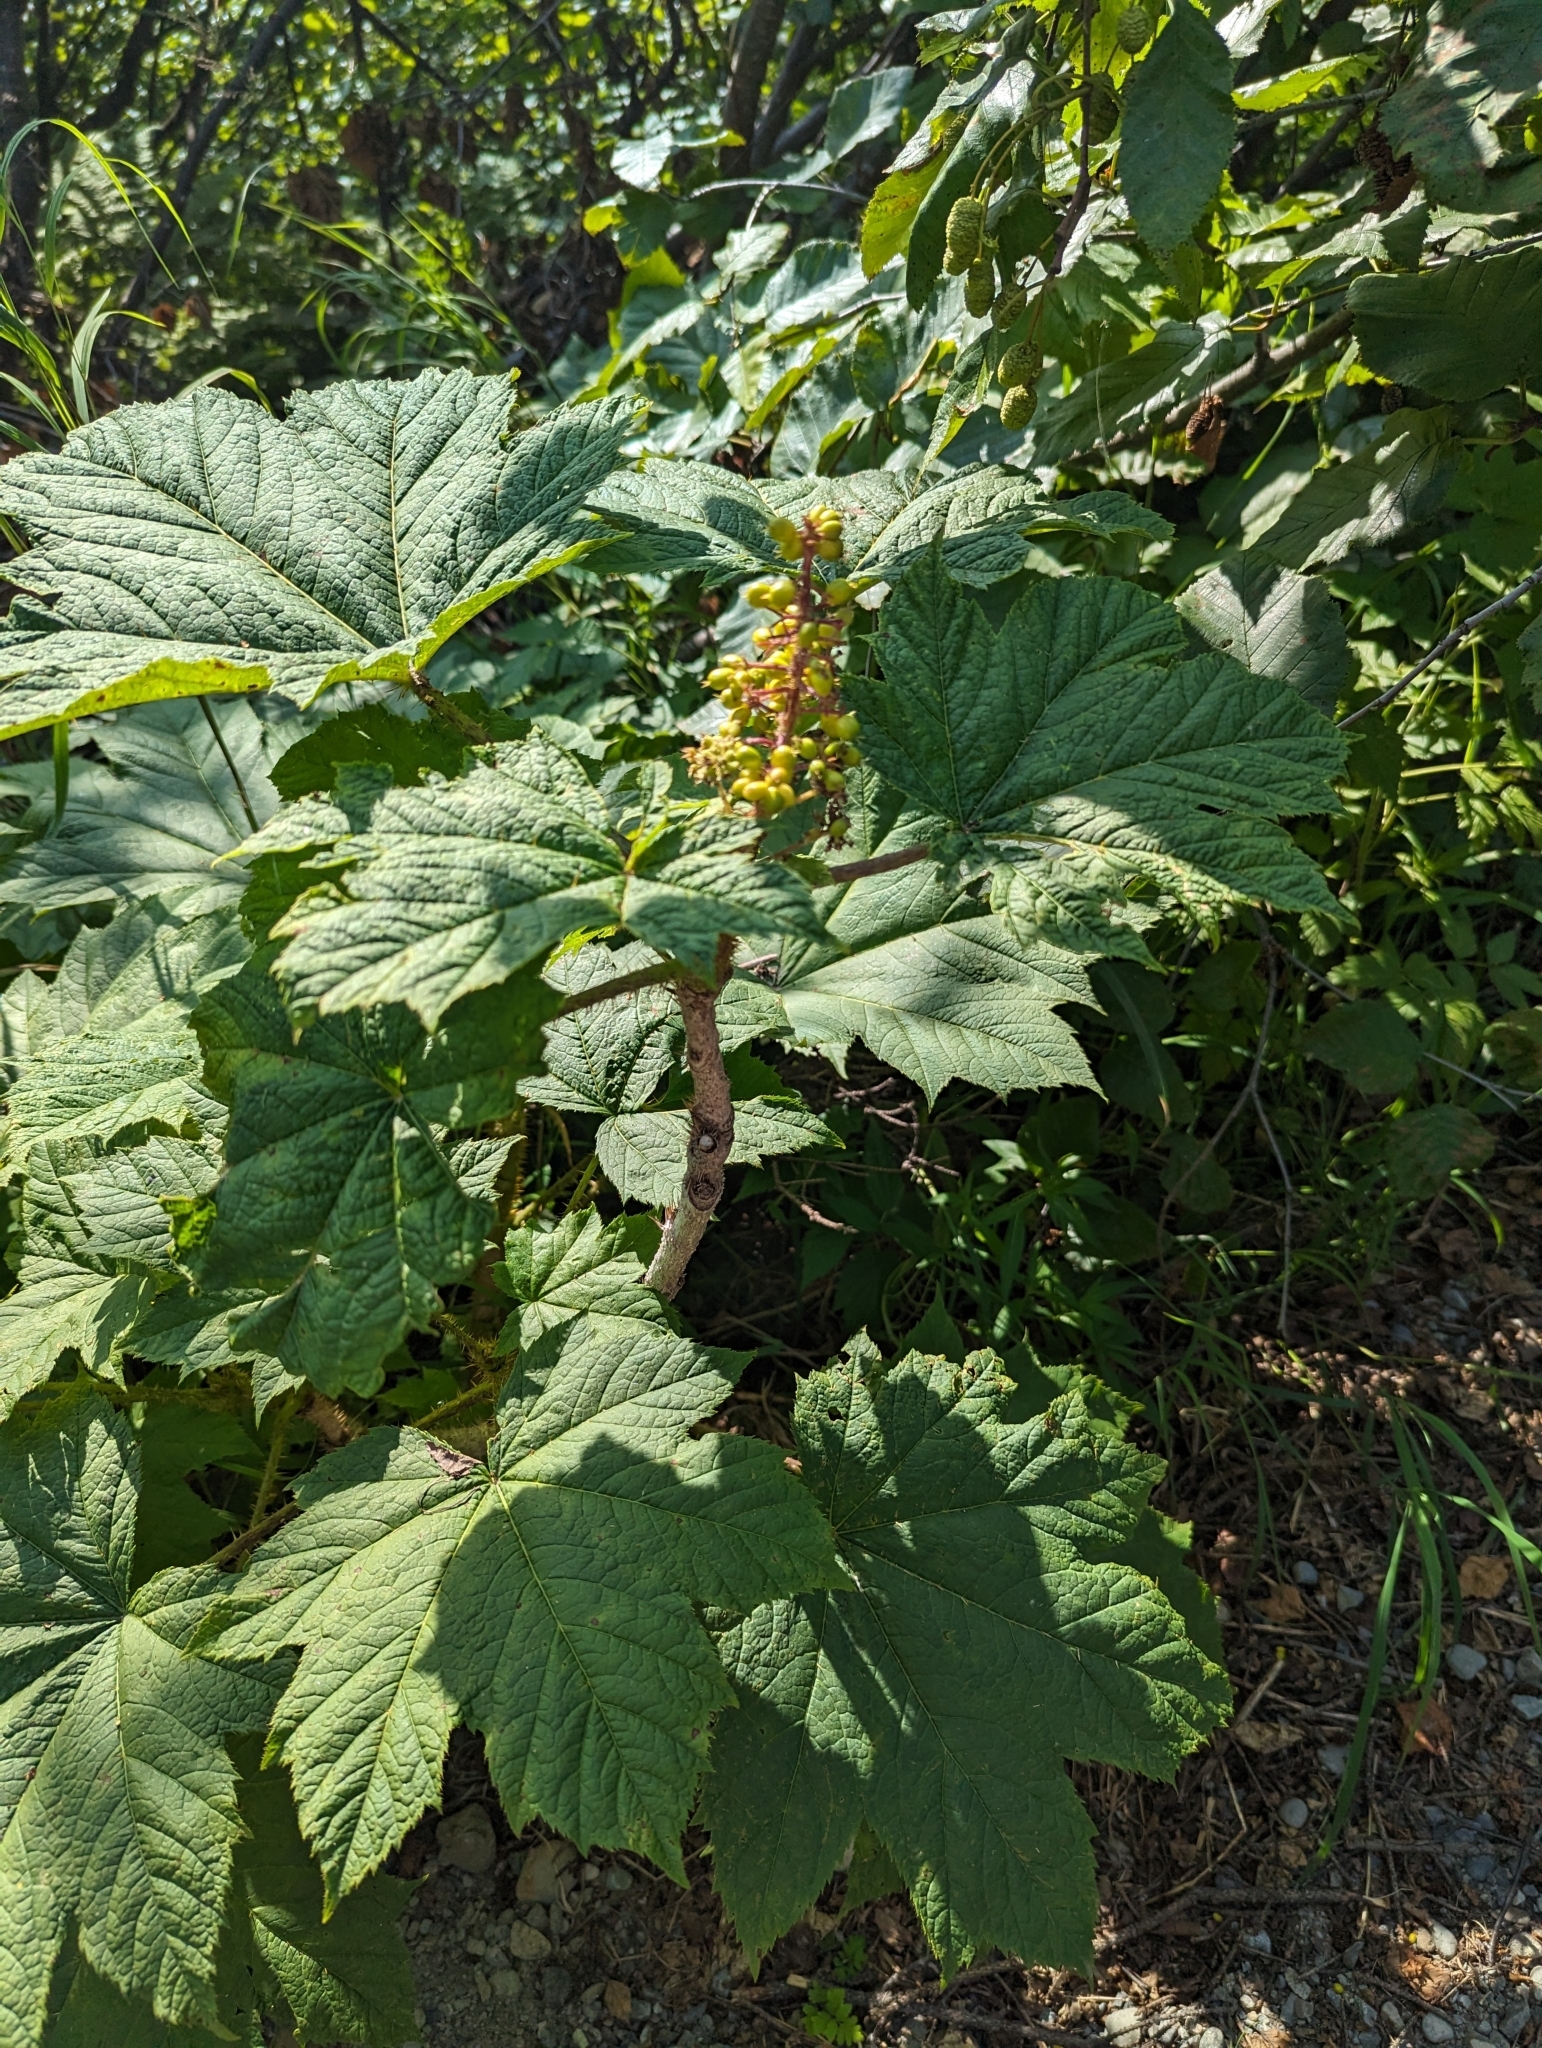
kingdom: Plantae
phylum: Tracheophyta
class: Magnoliopsida
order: Apiales
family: Araliaceae
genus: Oplopanax
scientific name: Oplopanax horridus
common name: Devil's walking-stick
